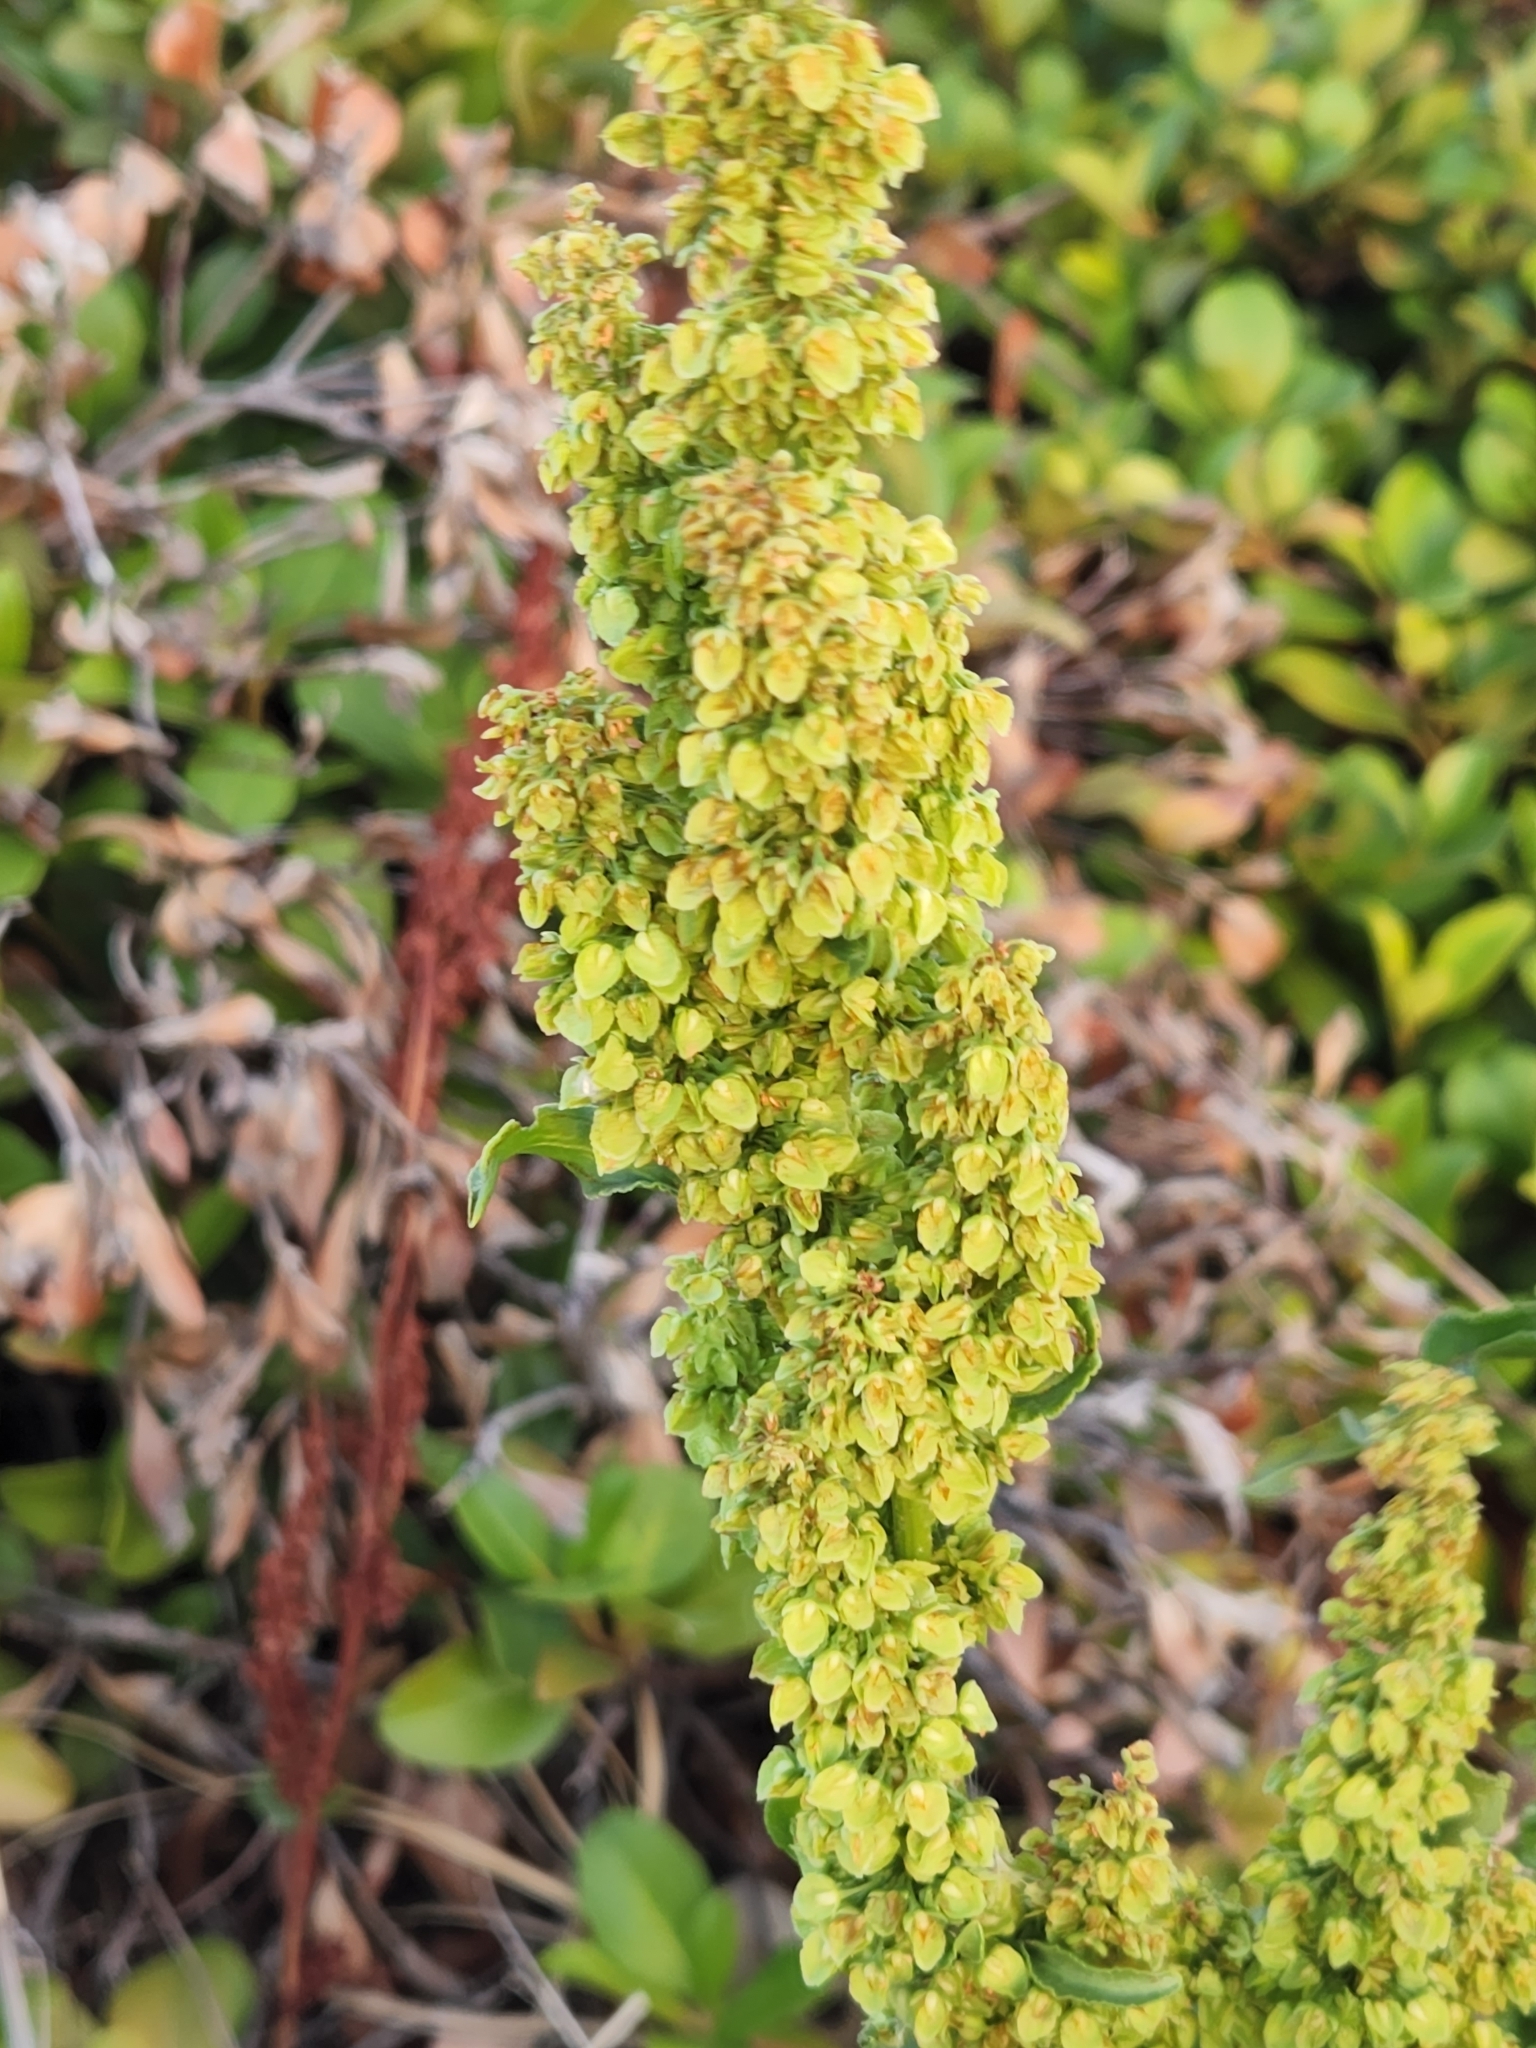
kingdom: Plantae
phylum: Tracheophyta
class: Magnoliopsida
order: Caryophyllales
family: Polygonaceae
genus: Rumex
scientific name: Rumex crispus
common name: Curled dock
